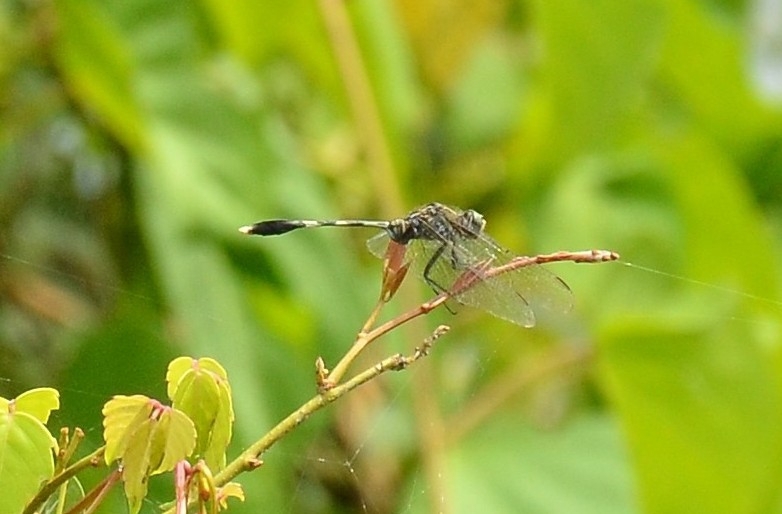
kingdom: Animalia
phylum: Arthropoda
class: Insecta
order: Odonata
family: Libellulidae
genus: Orthetrum
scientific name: Orthetrum sabina
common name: Slender skimmer
